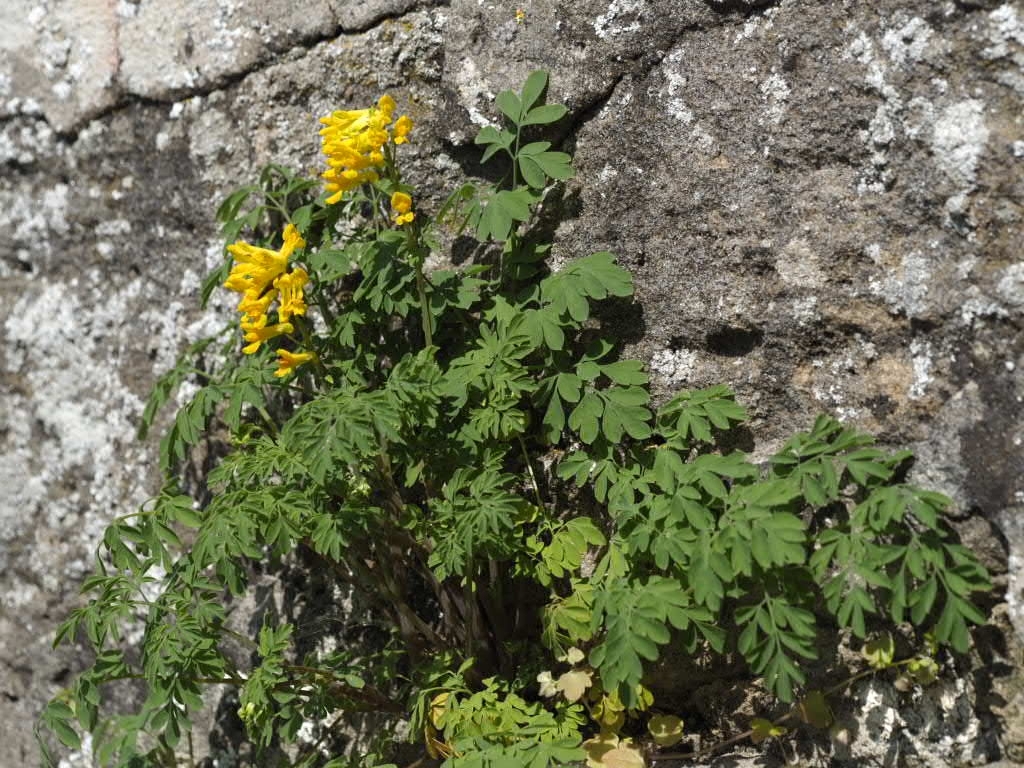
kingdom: Plantae
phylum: Tracheophyta
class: Magnoliopsida
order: Ranunculales
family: Papaveraceae
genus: Pseudofumaria
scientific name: Pseudofumaria lutea
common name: Yellow corydalis
